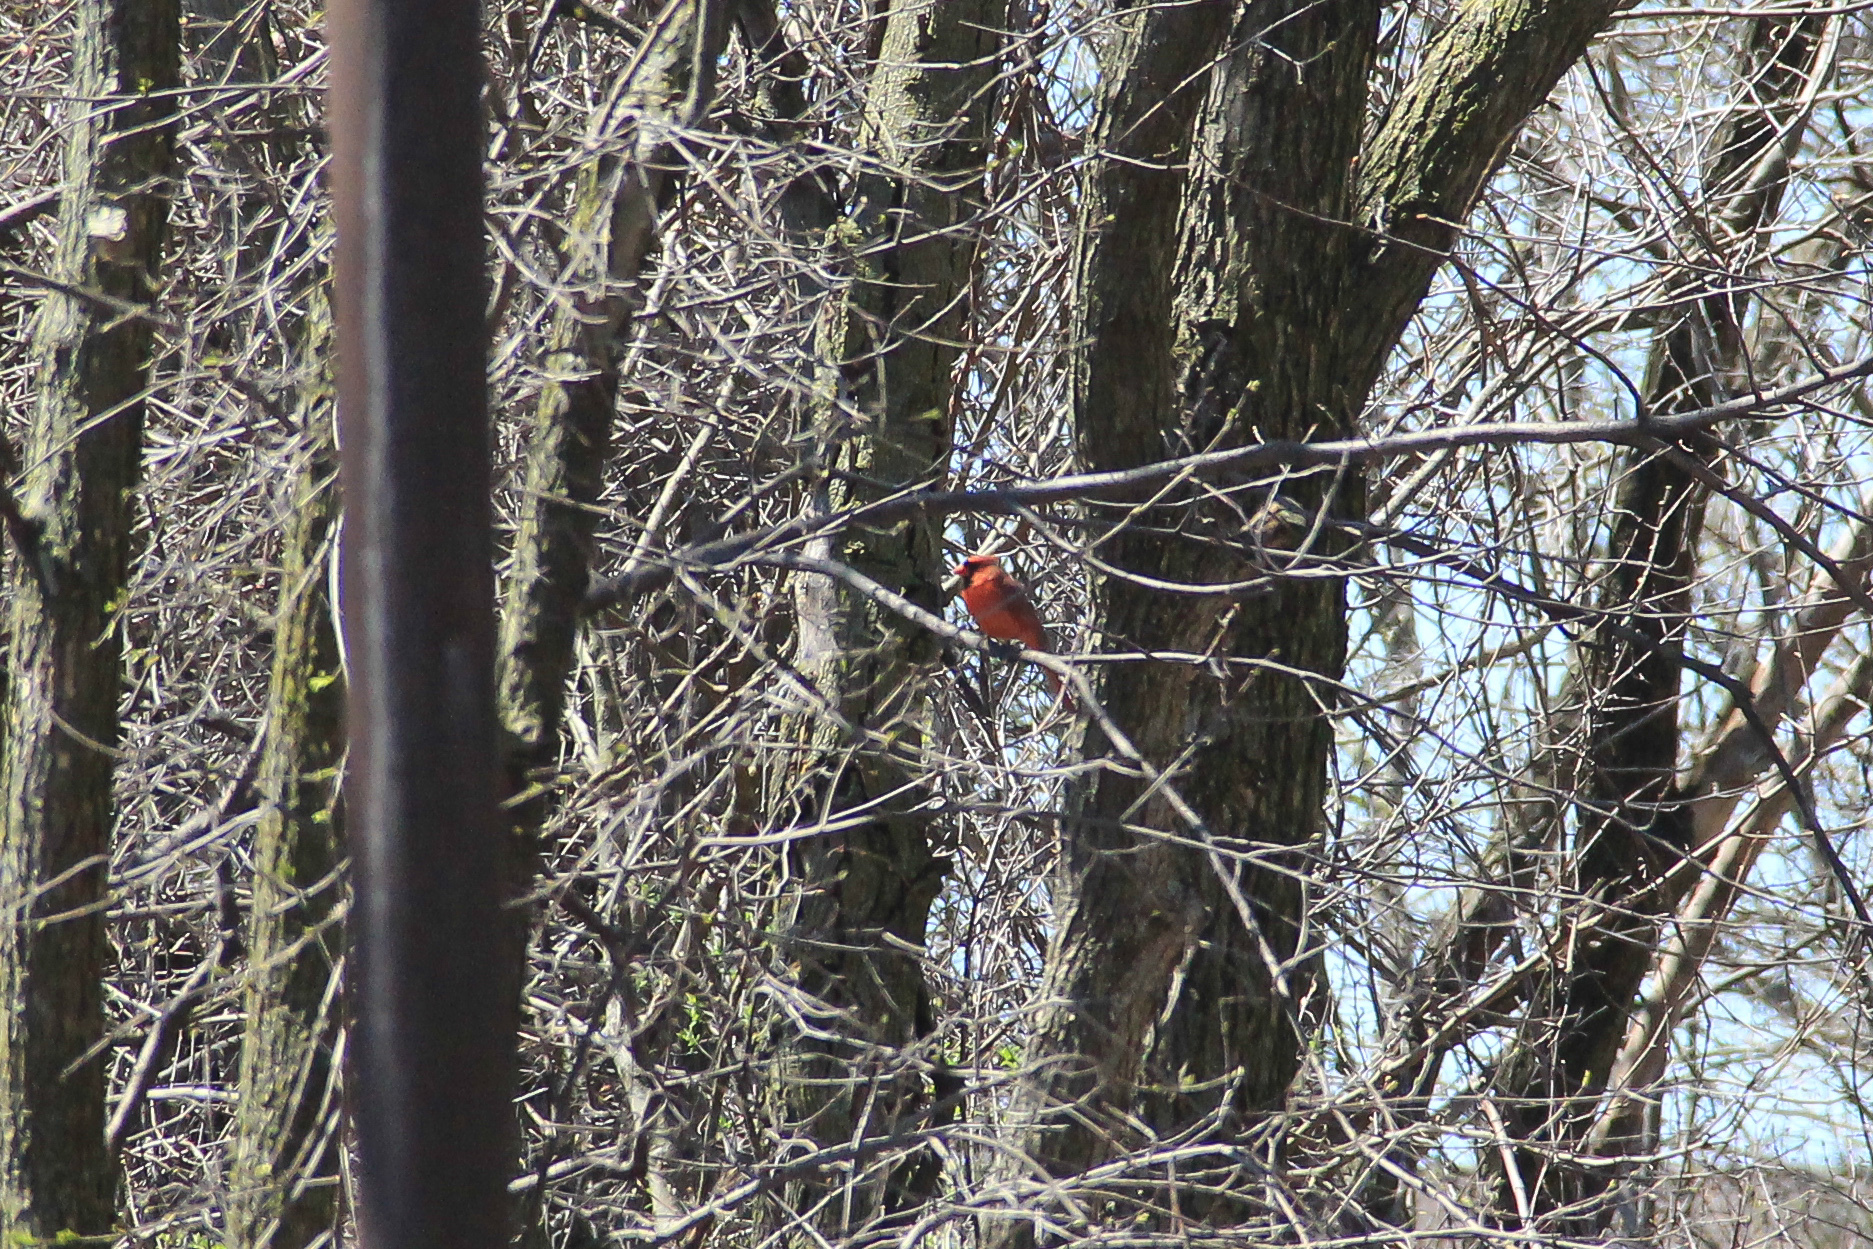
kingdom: Animalia
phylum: Chordata
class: Aves
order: Passeriformes
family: Cardinalidae
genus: Cardinalis
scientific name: Cardinalis cardinalis
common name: Northern cardinal
